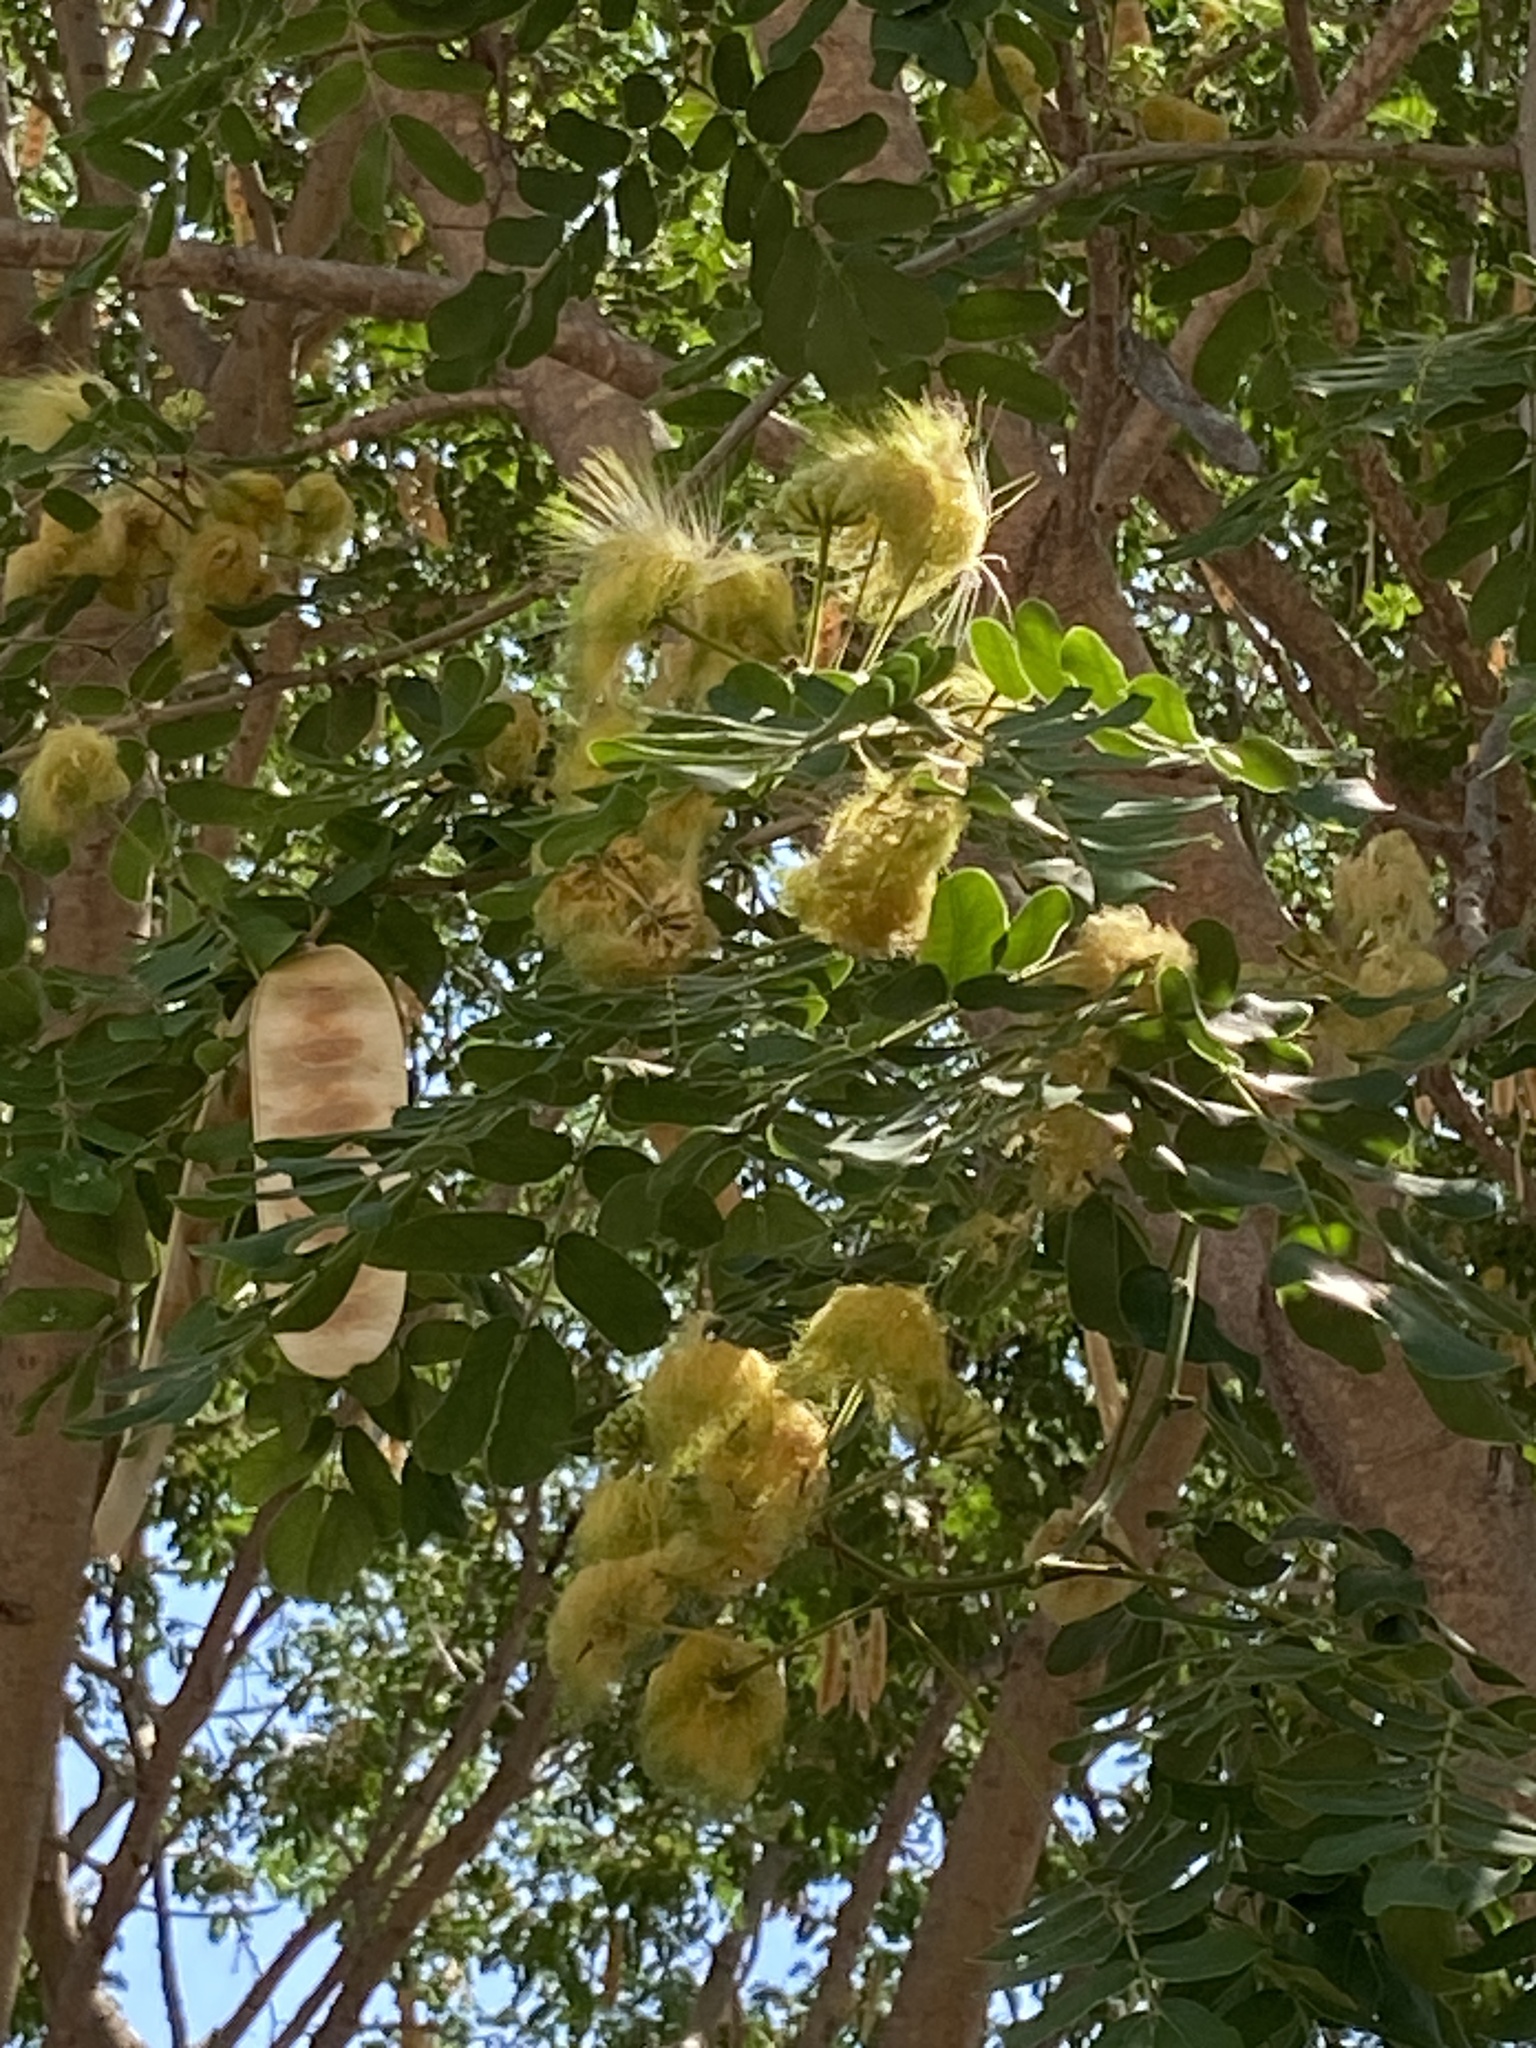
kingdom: Plantae
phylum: Tracheophyta
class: Magnoliopsida
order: Fabales
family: Fabaceae
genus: Albizia
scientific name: Albizia lebbeck
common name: Woman's tongue
